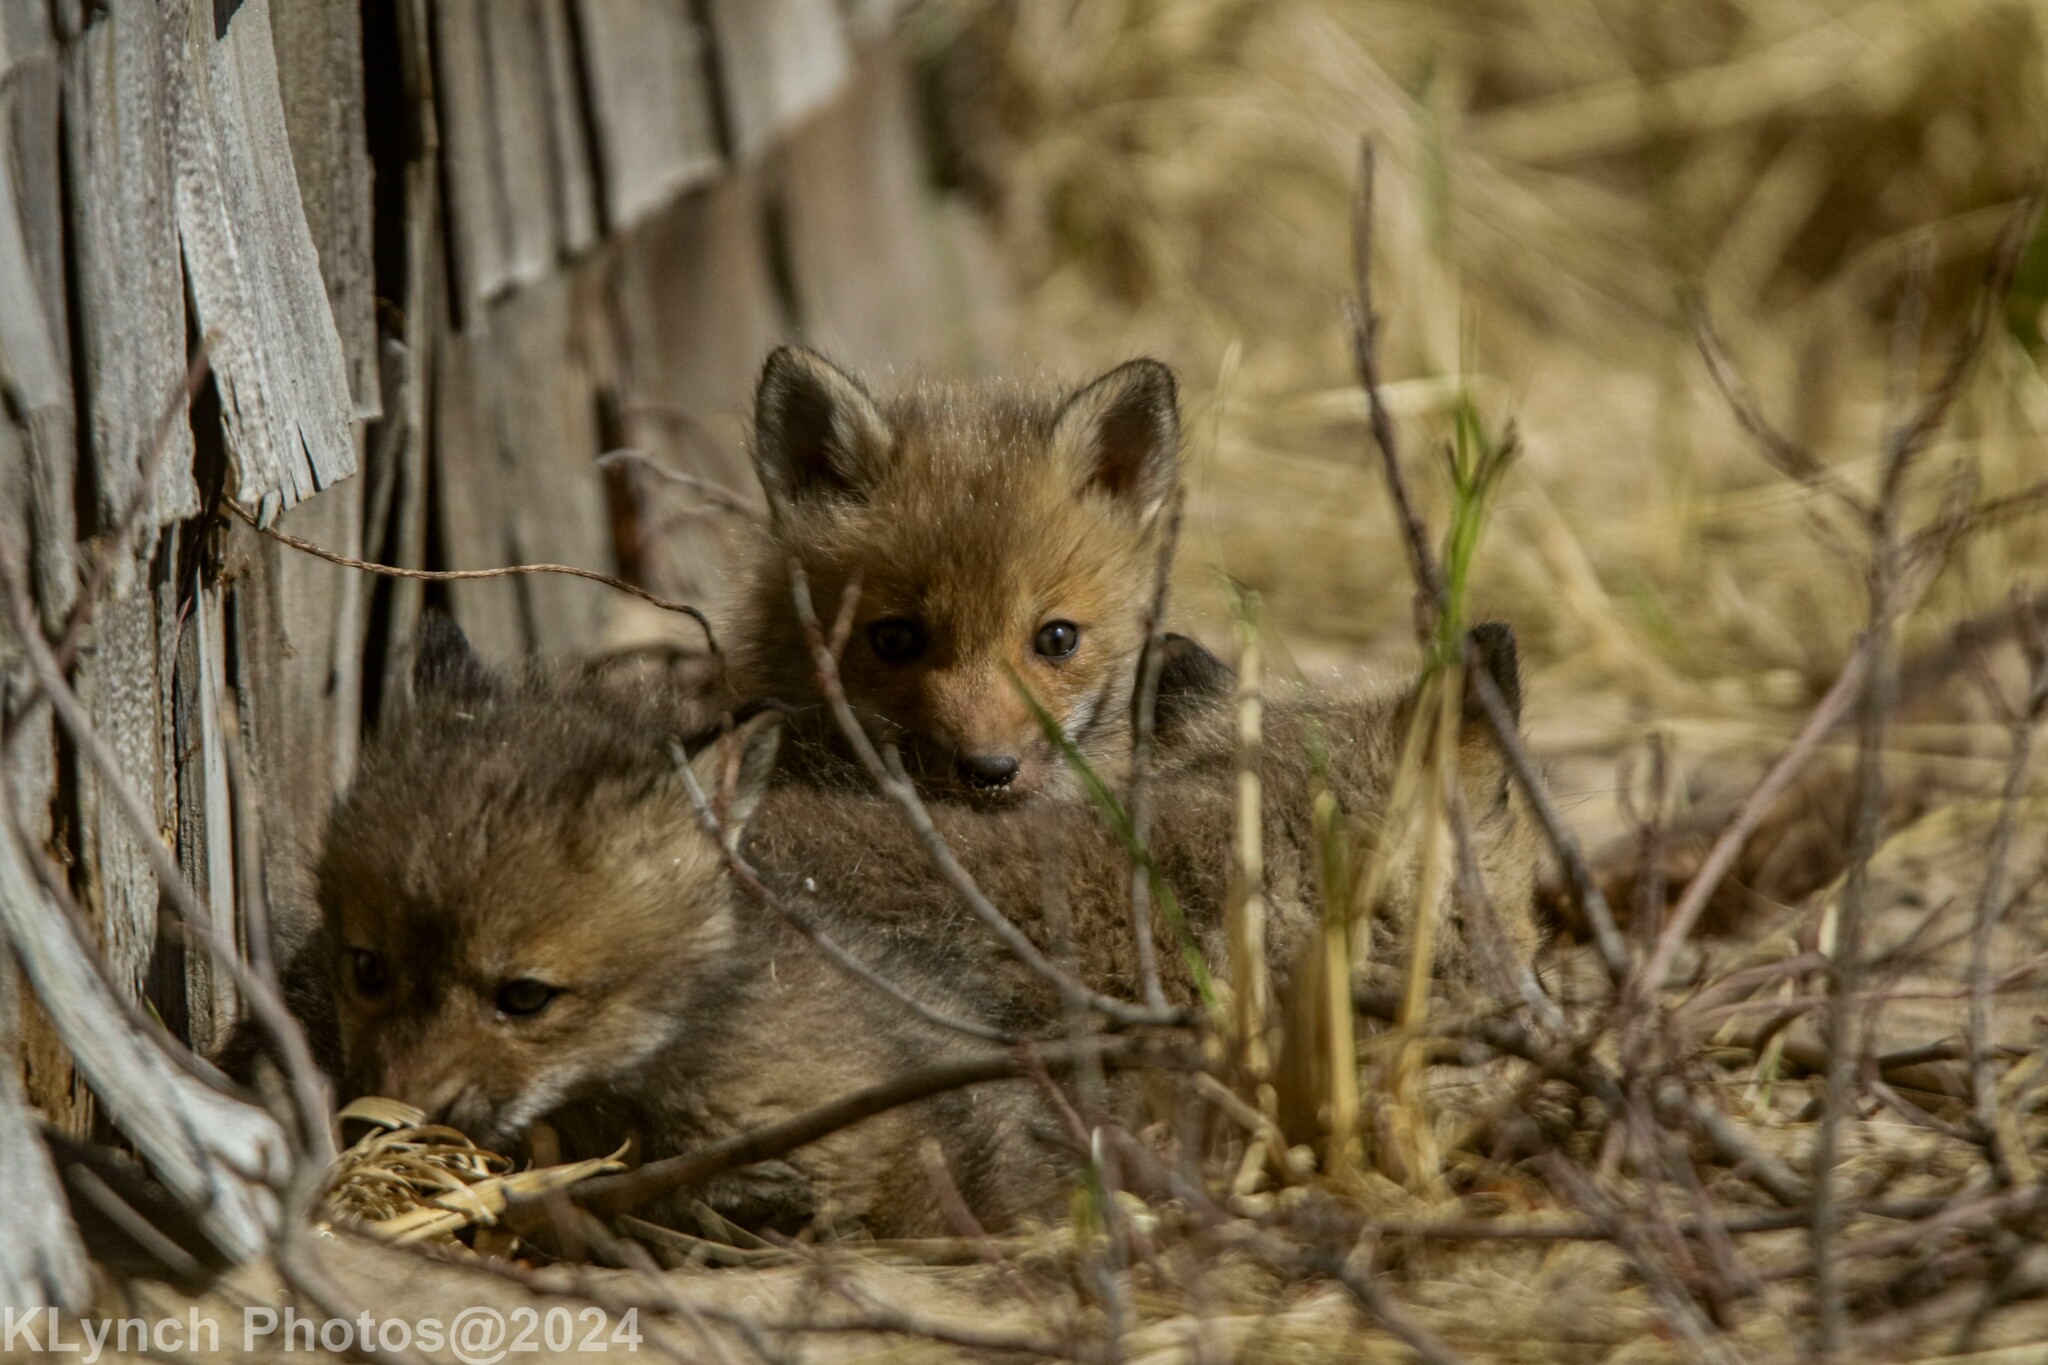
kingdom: Animalia
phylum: Chordata
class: Mammalia
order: Carnivora
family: Canidae
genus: Vulpes
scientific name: Vulpes vulpes
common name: Red fox
